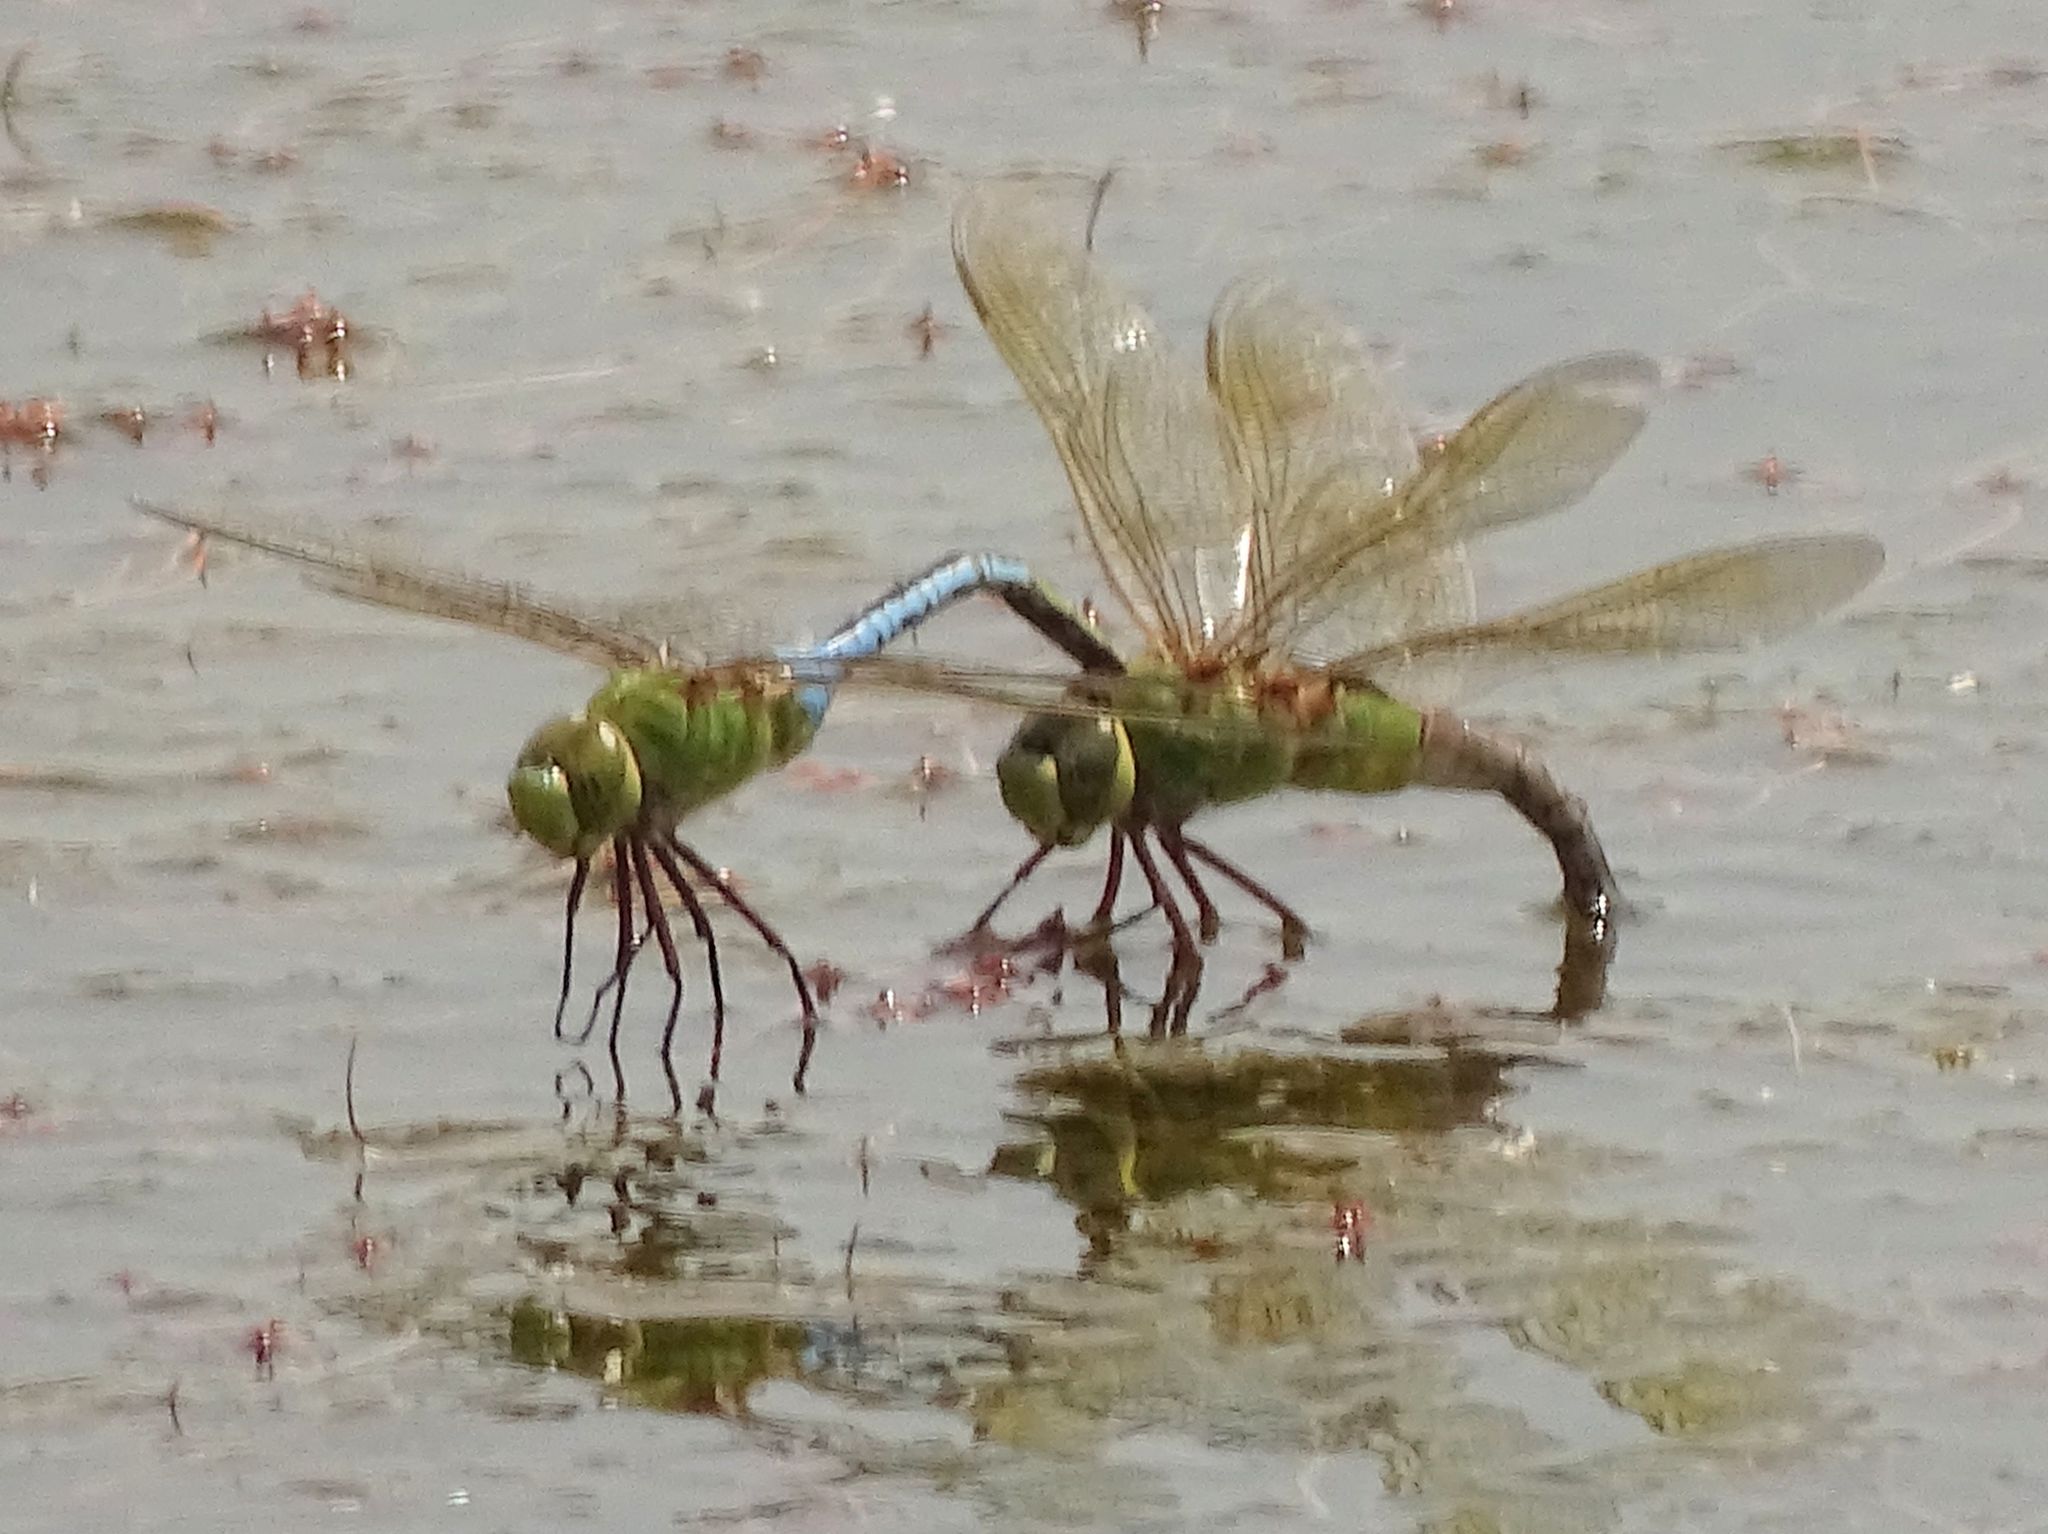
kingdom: Animalia
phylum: Arthropoda
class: Insecta
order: Odonata
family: Aeshnidae
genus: Anax
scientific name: Anax junius
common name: Common green darner
